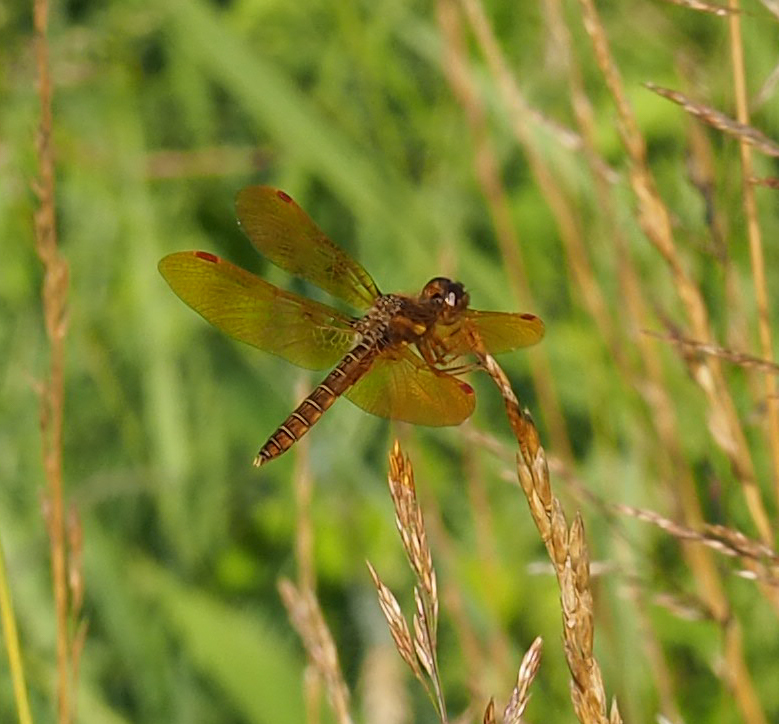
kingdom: Animalia
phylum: Arthropoda
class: Insecta
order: Odonata
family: Libellulidae
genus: Perithemis
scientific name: Perithemis tenera
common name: Eastern amberwing
